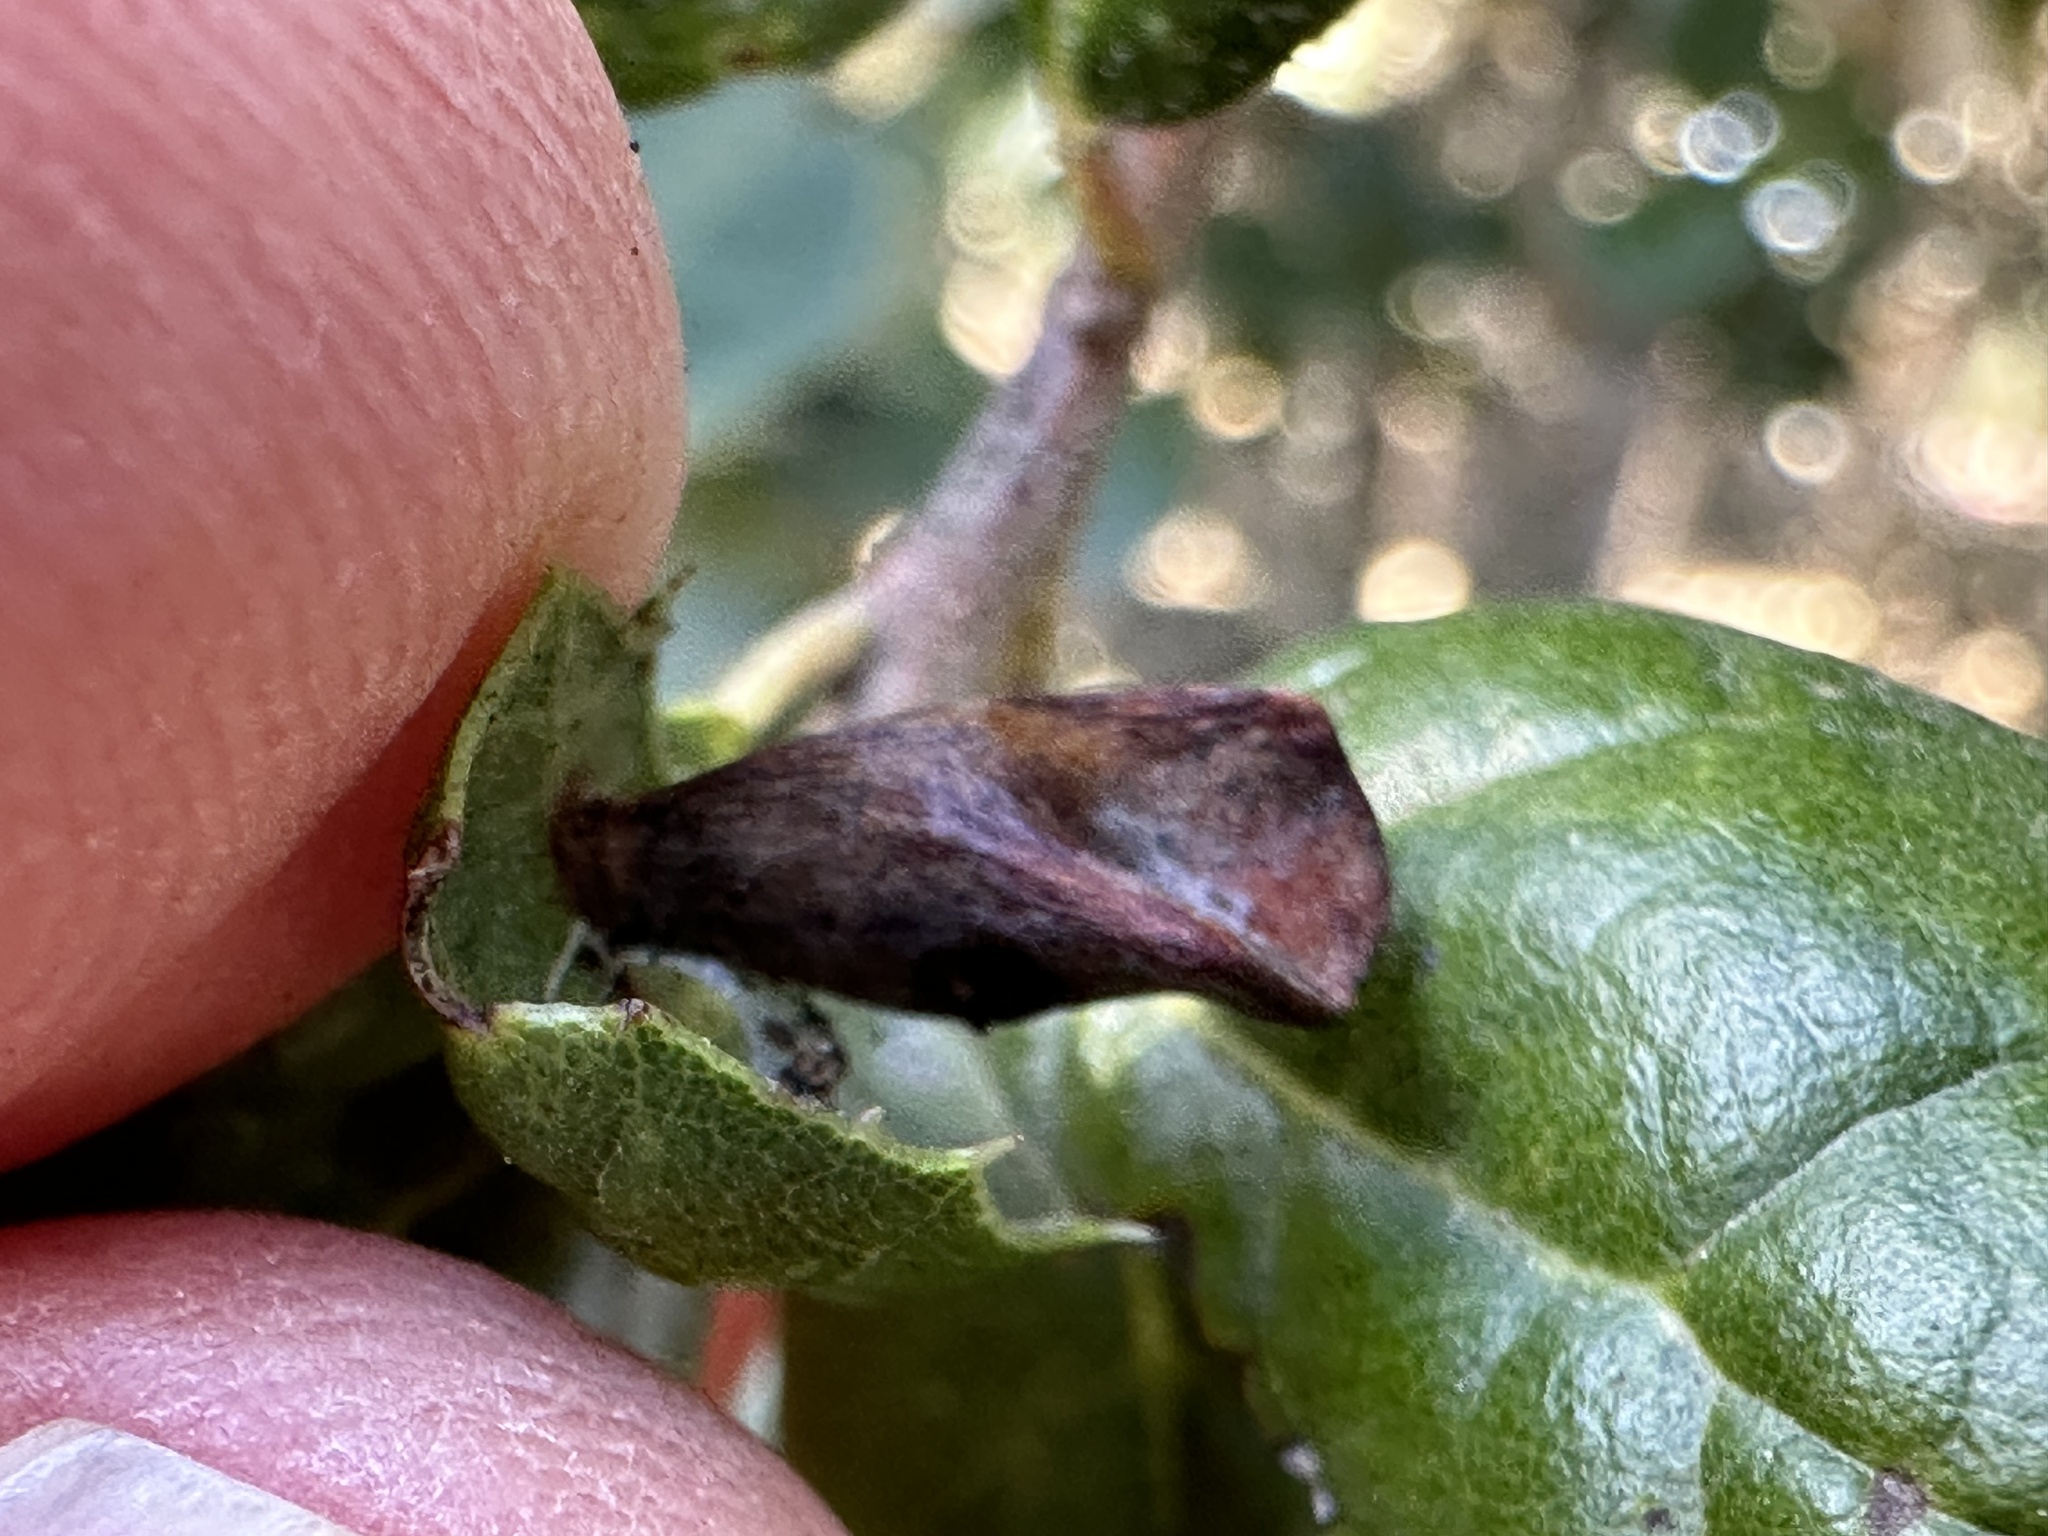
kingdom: Animalia
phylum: Arthropoda
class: Insecta
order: Hymenoptera
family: Cynipidae
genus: Amphibolips
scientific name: Amphibolips quercuspomiformis
